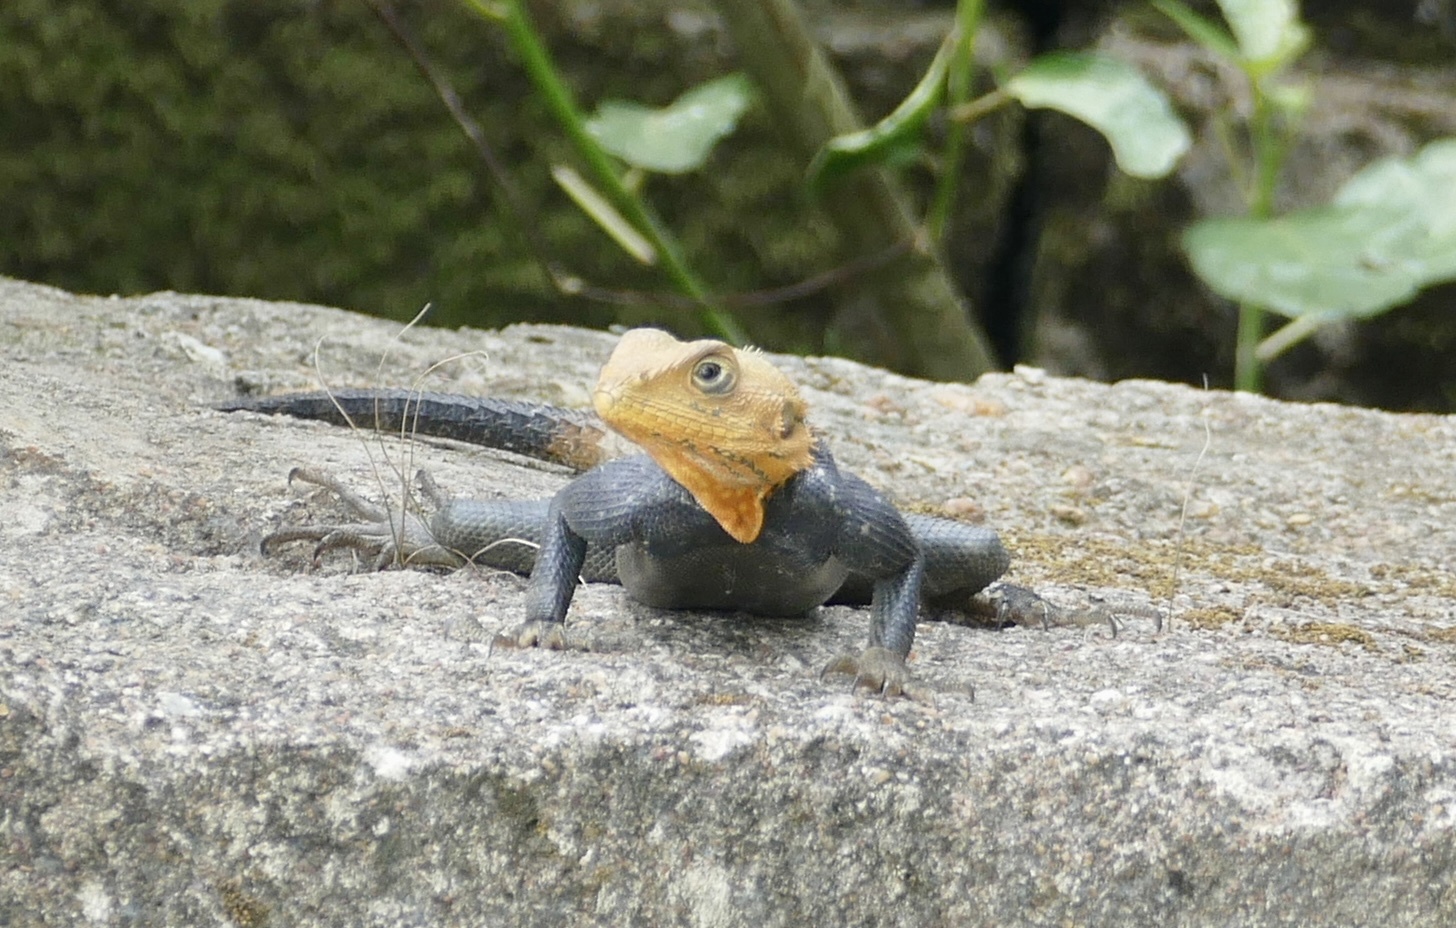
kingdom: Animalia
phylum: Chordata
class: Squamata
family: Agamidae
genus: Agama
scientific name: Agama picticauda
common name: Red-headed agama
